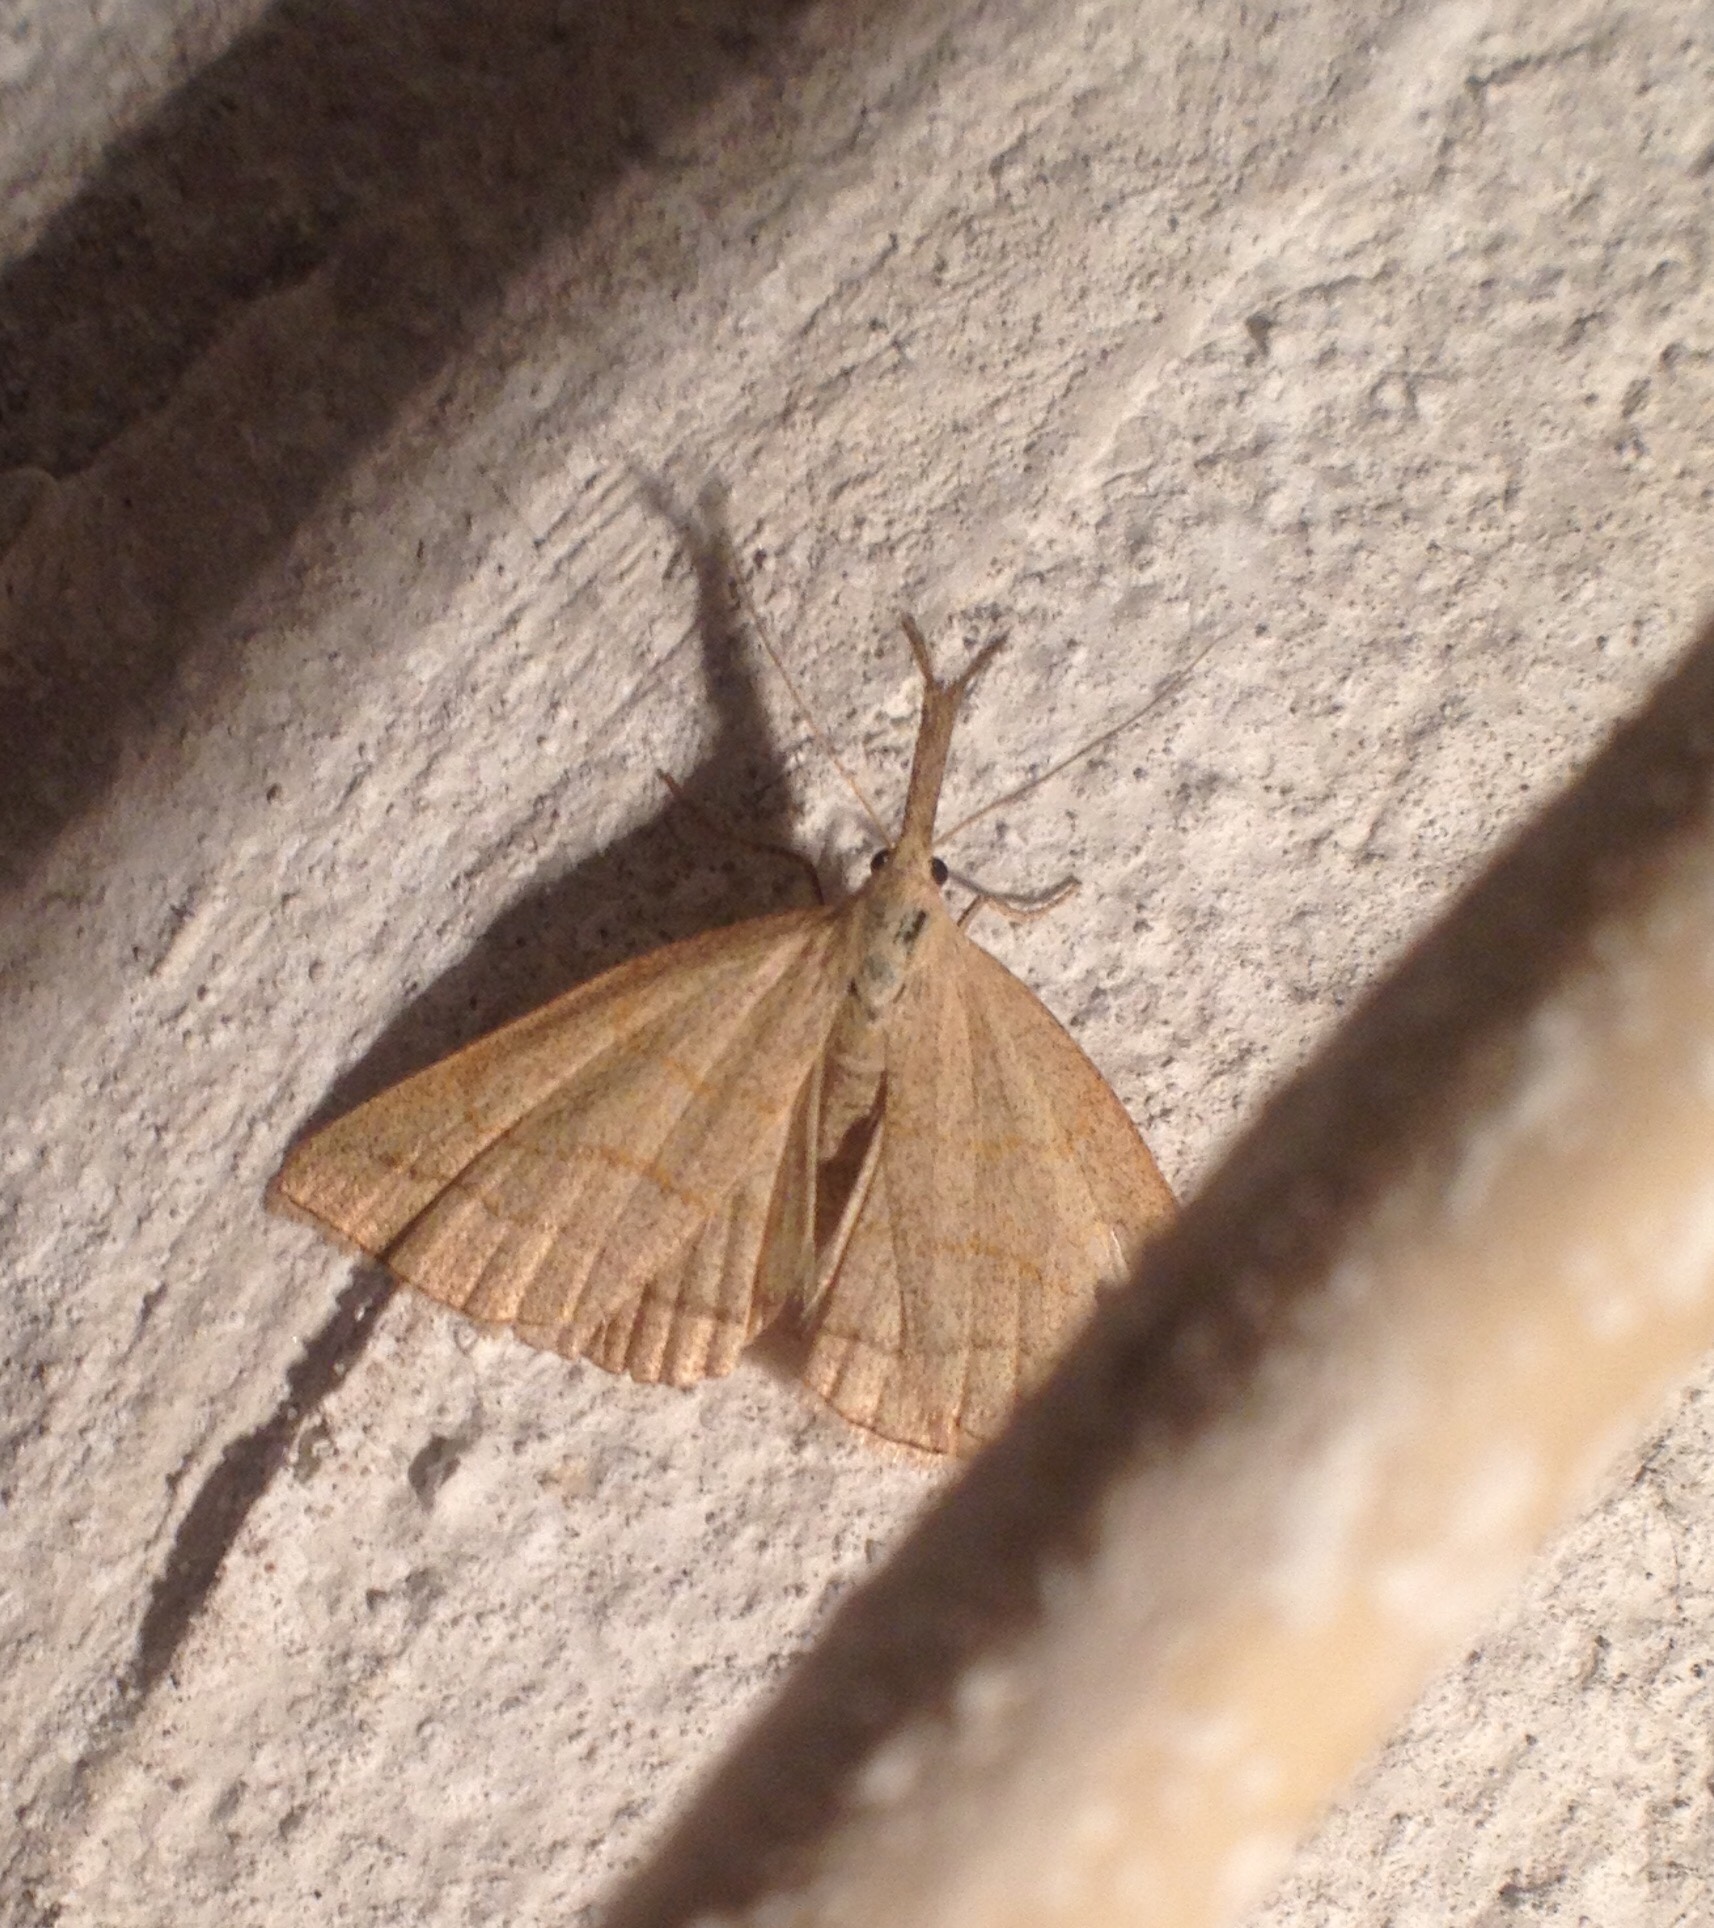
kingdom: Animalia
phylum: Arthropoda
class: Insecta
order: Lepidoptera
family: Erebidae
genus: Polypogon
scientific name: Polypogon tentacularia
